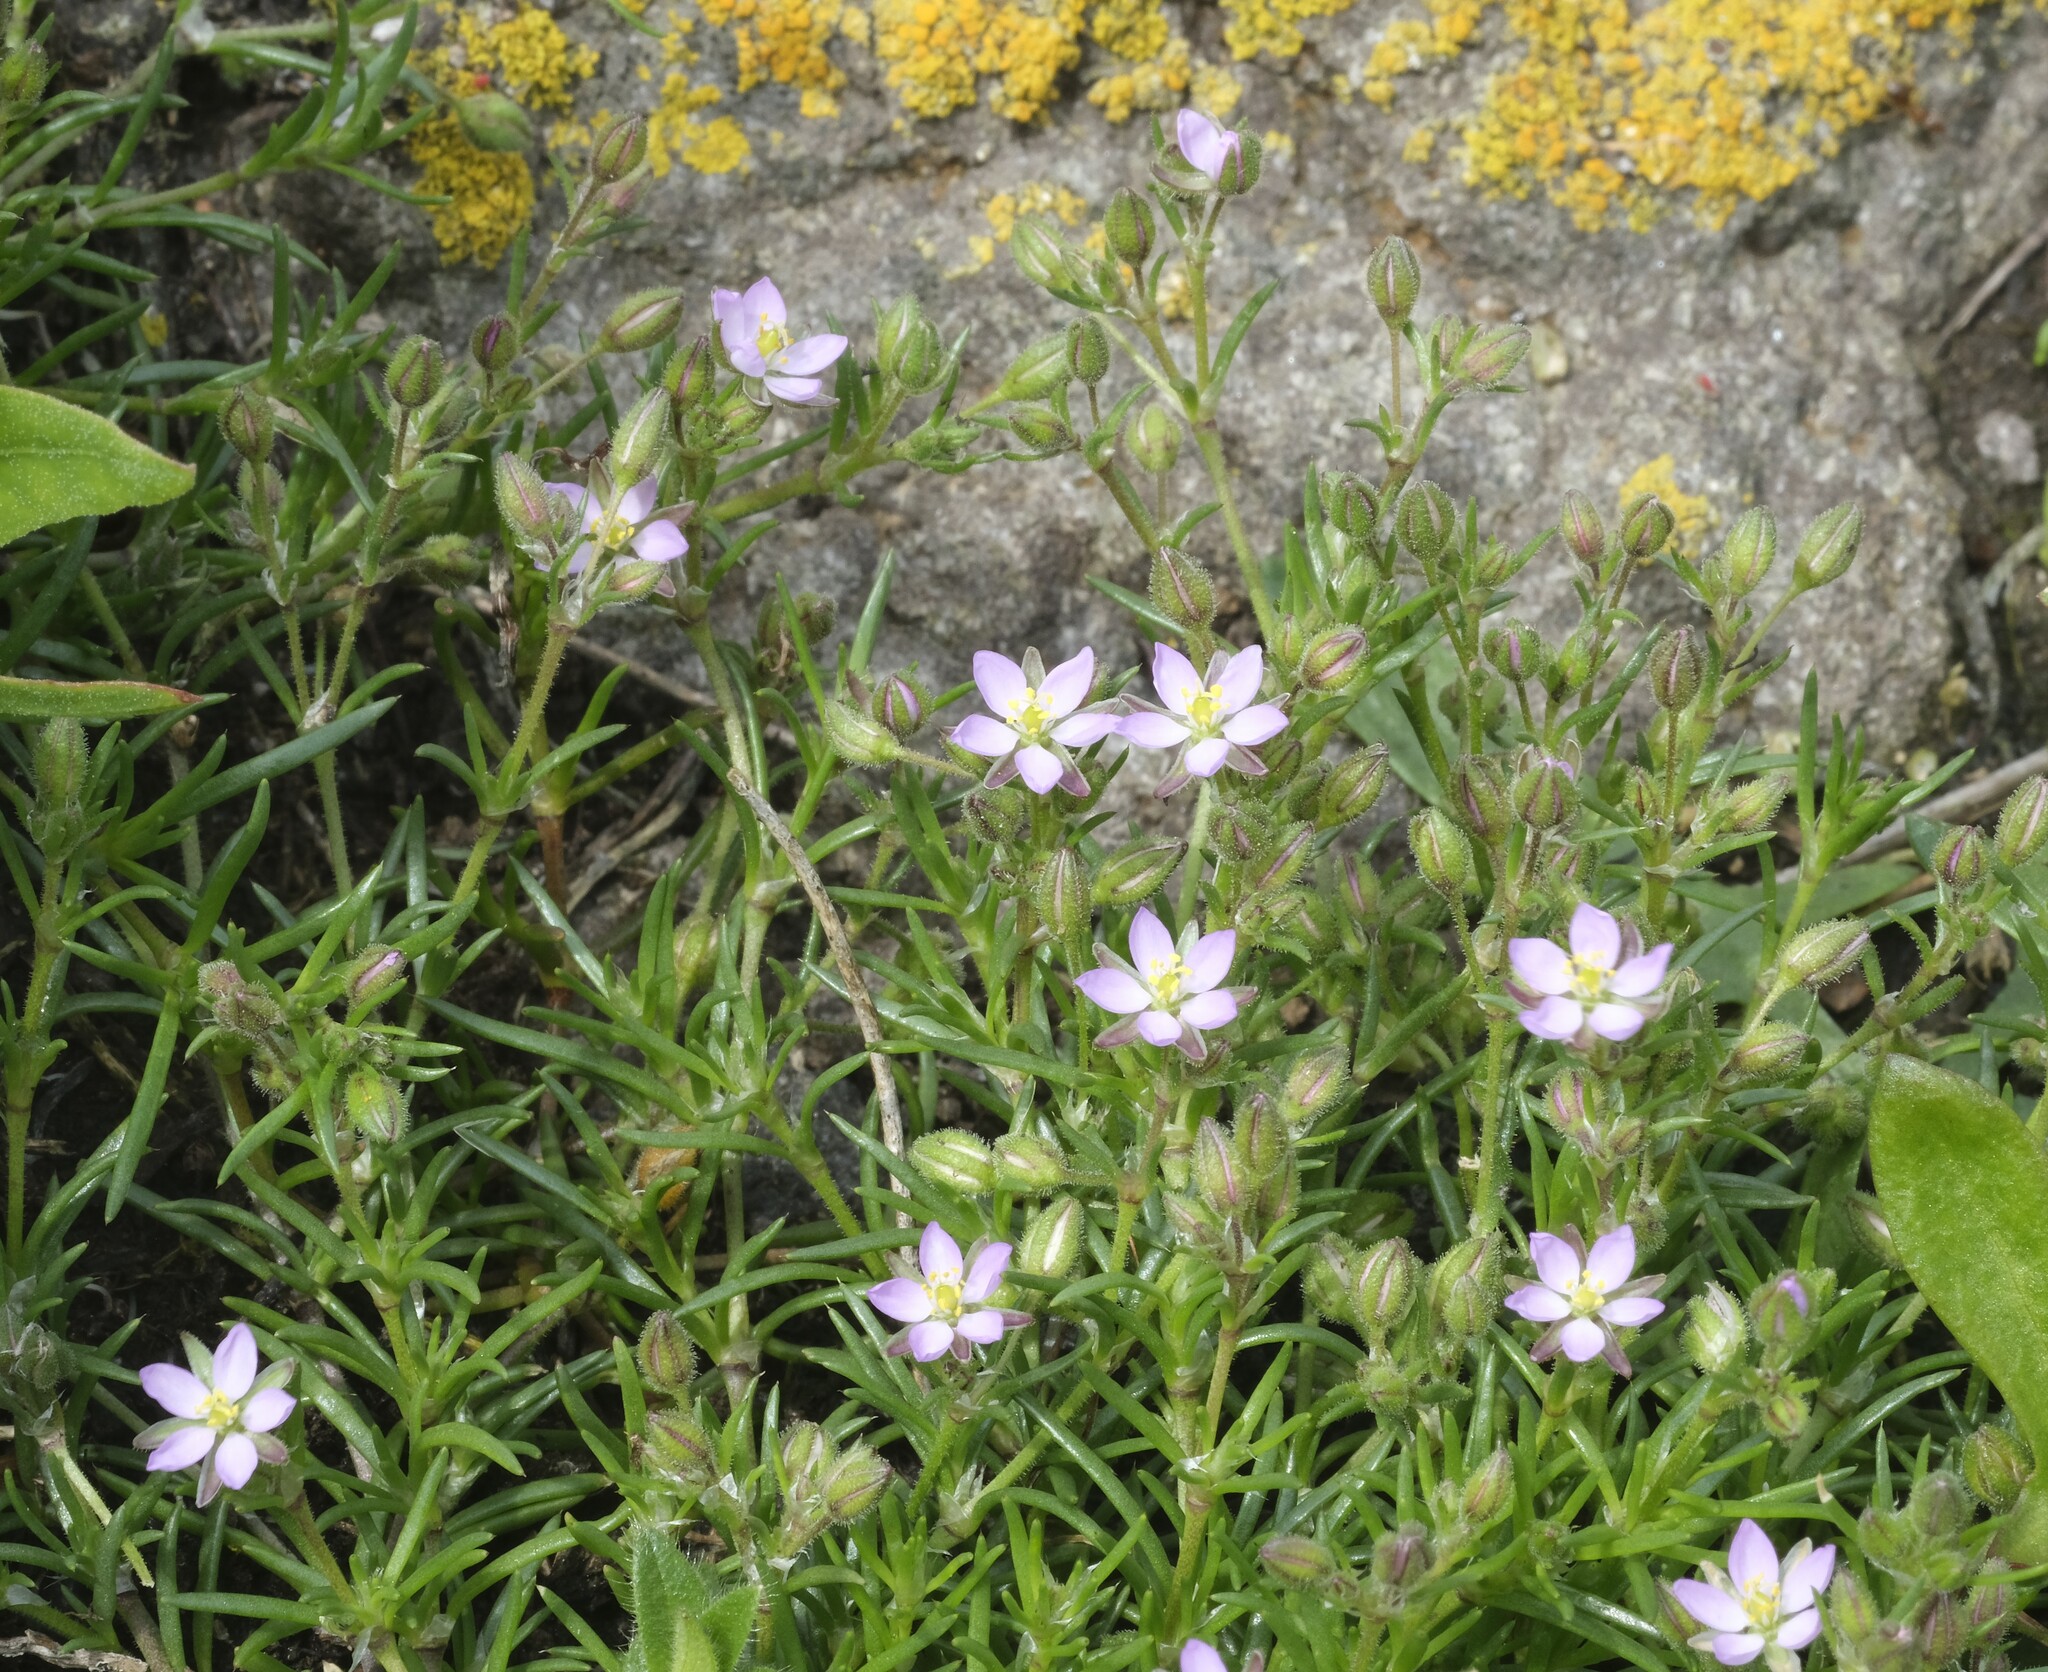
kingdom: Plantae
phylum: Tracheophyta
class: Magnoliopsida
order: Caryophyllales
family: Caryophyllaceae
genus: Spergularia
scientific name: Spergularia rubra
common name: Red sand-spurrey
